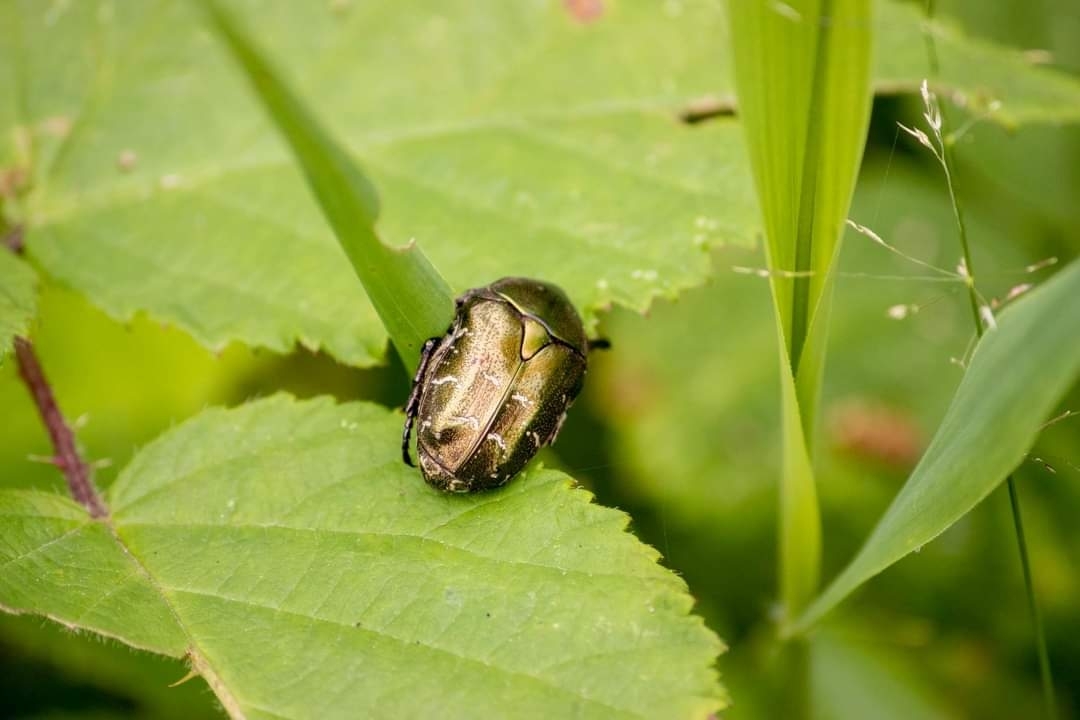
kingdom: Animalia
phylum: Arthropoda
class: Insecta
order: Coleoptera
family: Scarabaeidae
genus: Cetonia
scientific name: Cetonia aurata
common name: Rose chafer
